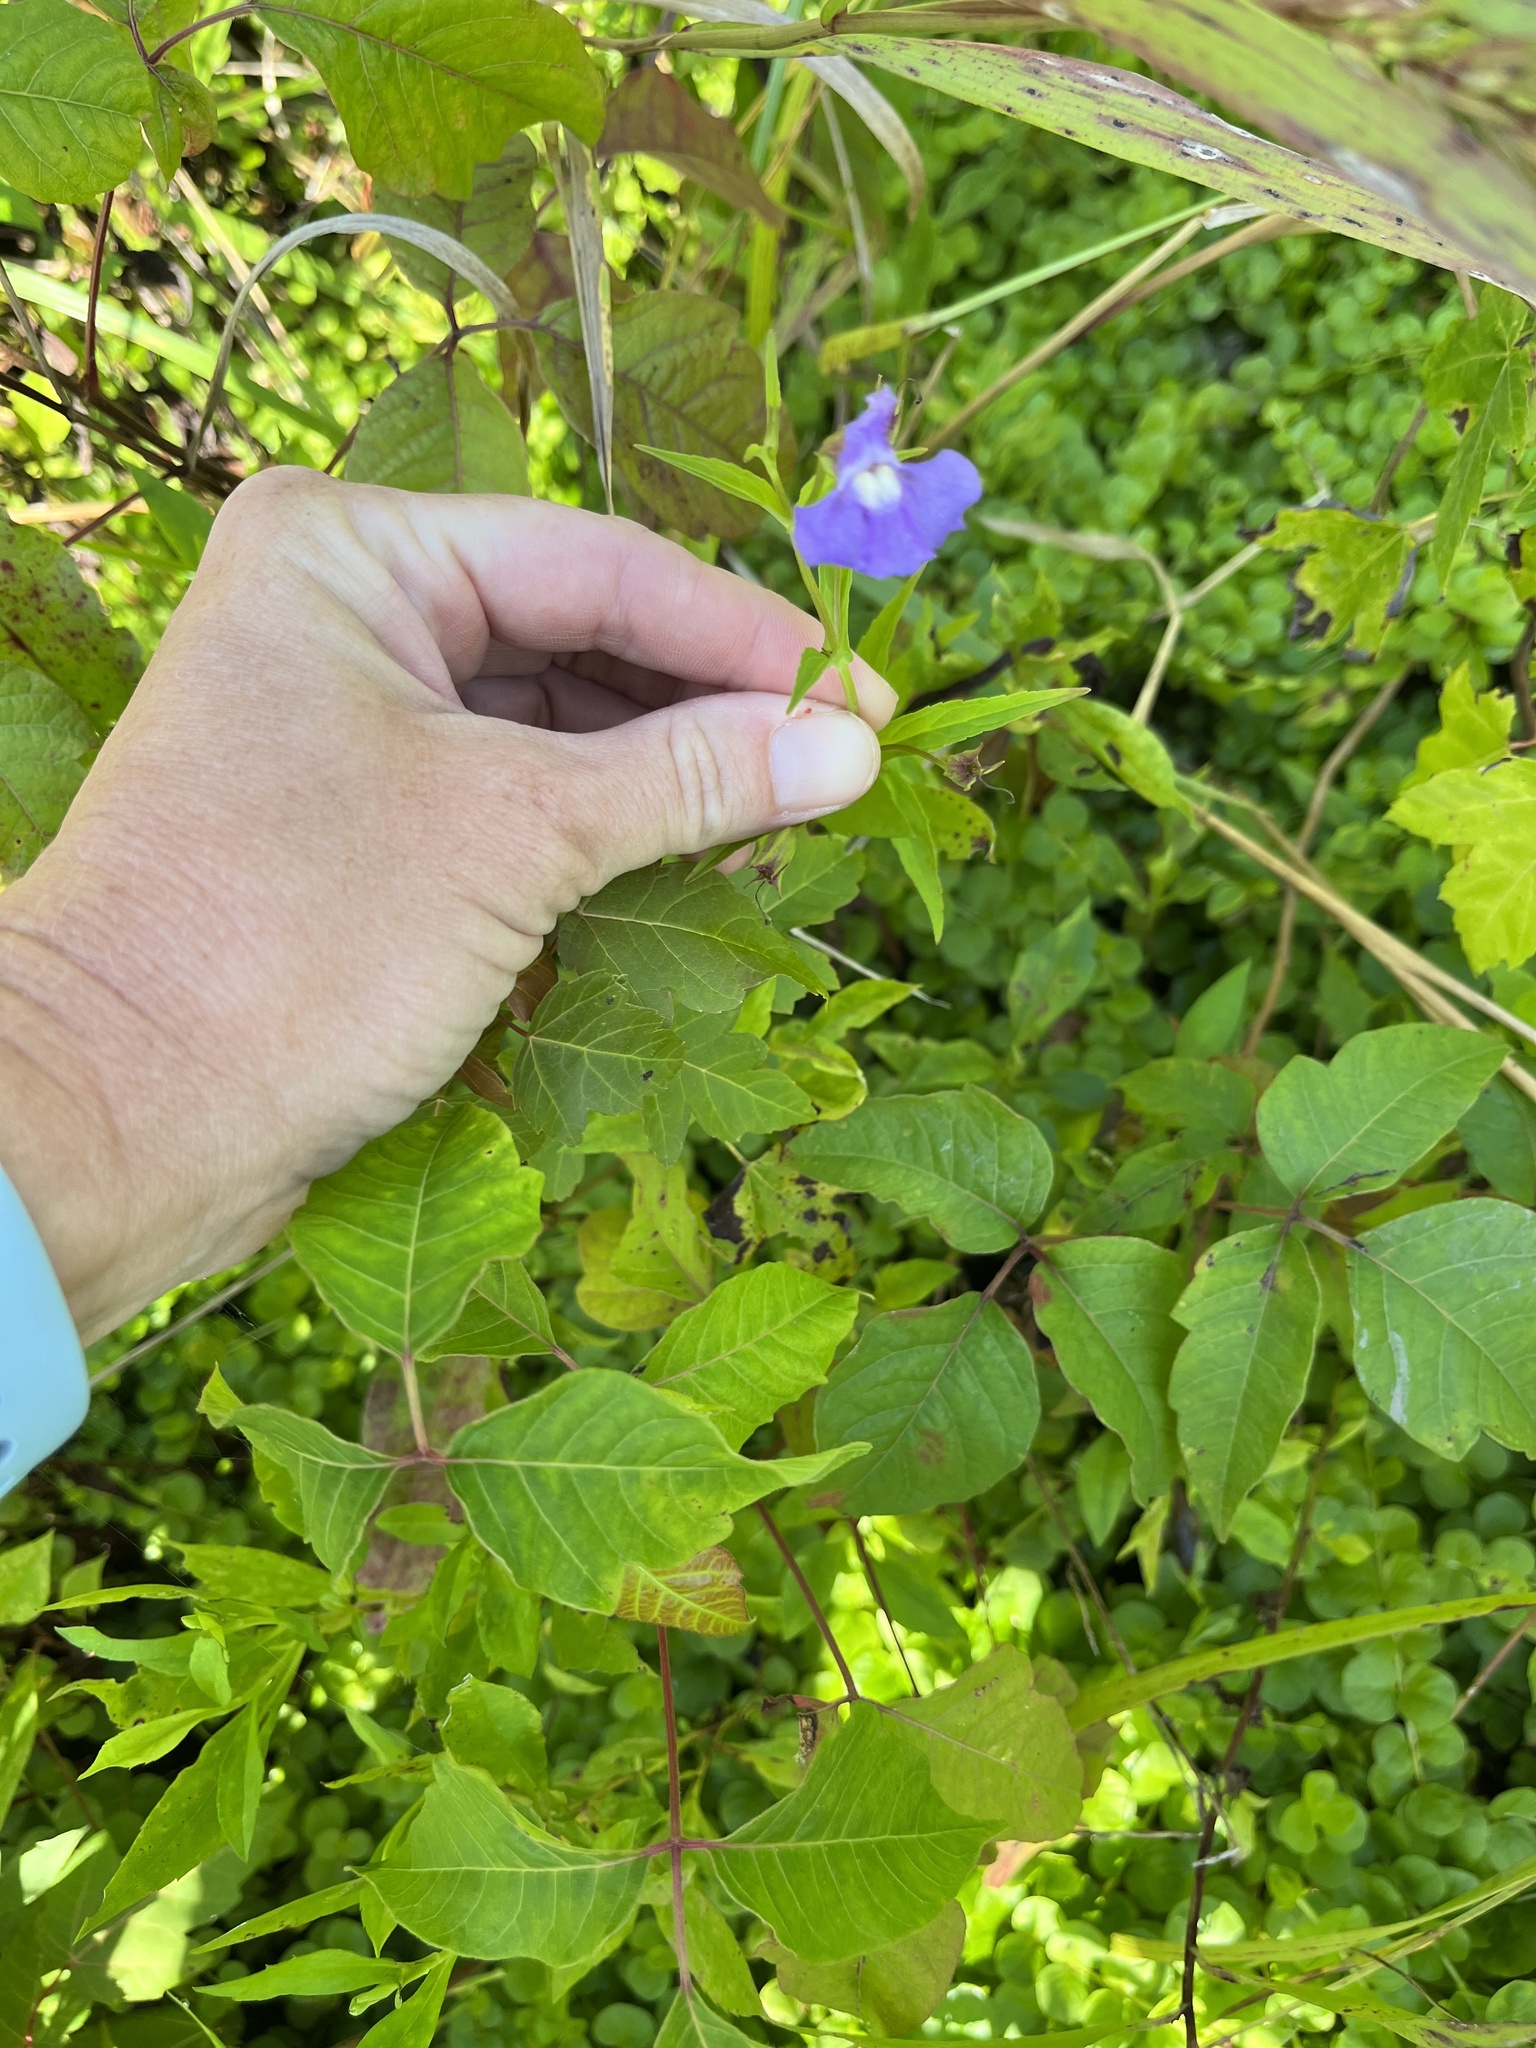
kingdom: Plantae
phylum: Tracheophyta
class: Magnoliopsida
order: Lamiales
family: Phrymaceae
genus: Mimulus
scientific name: Mimulus ringens
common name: Allegheny monkeyflower
